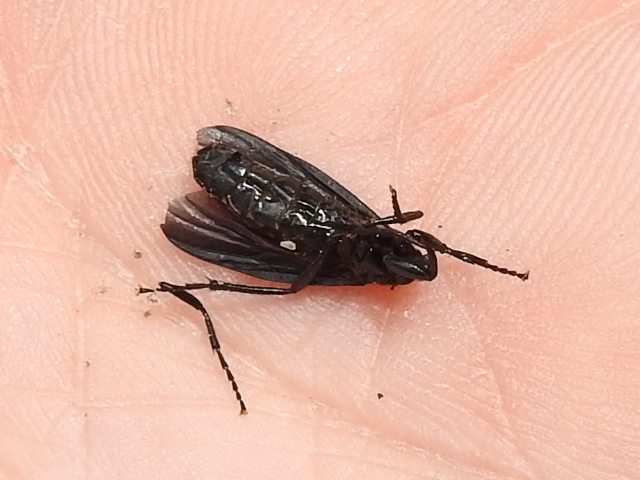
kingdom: Animalia
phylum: Arthropoda
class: Insecta
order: Diptera
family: Bibionidae
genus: Bibio
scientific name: Bibio superfluus
